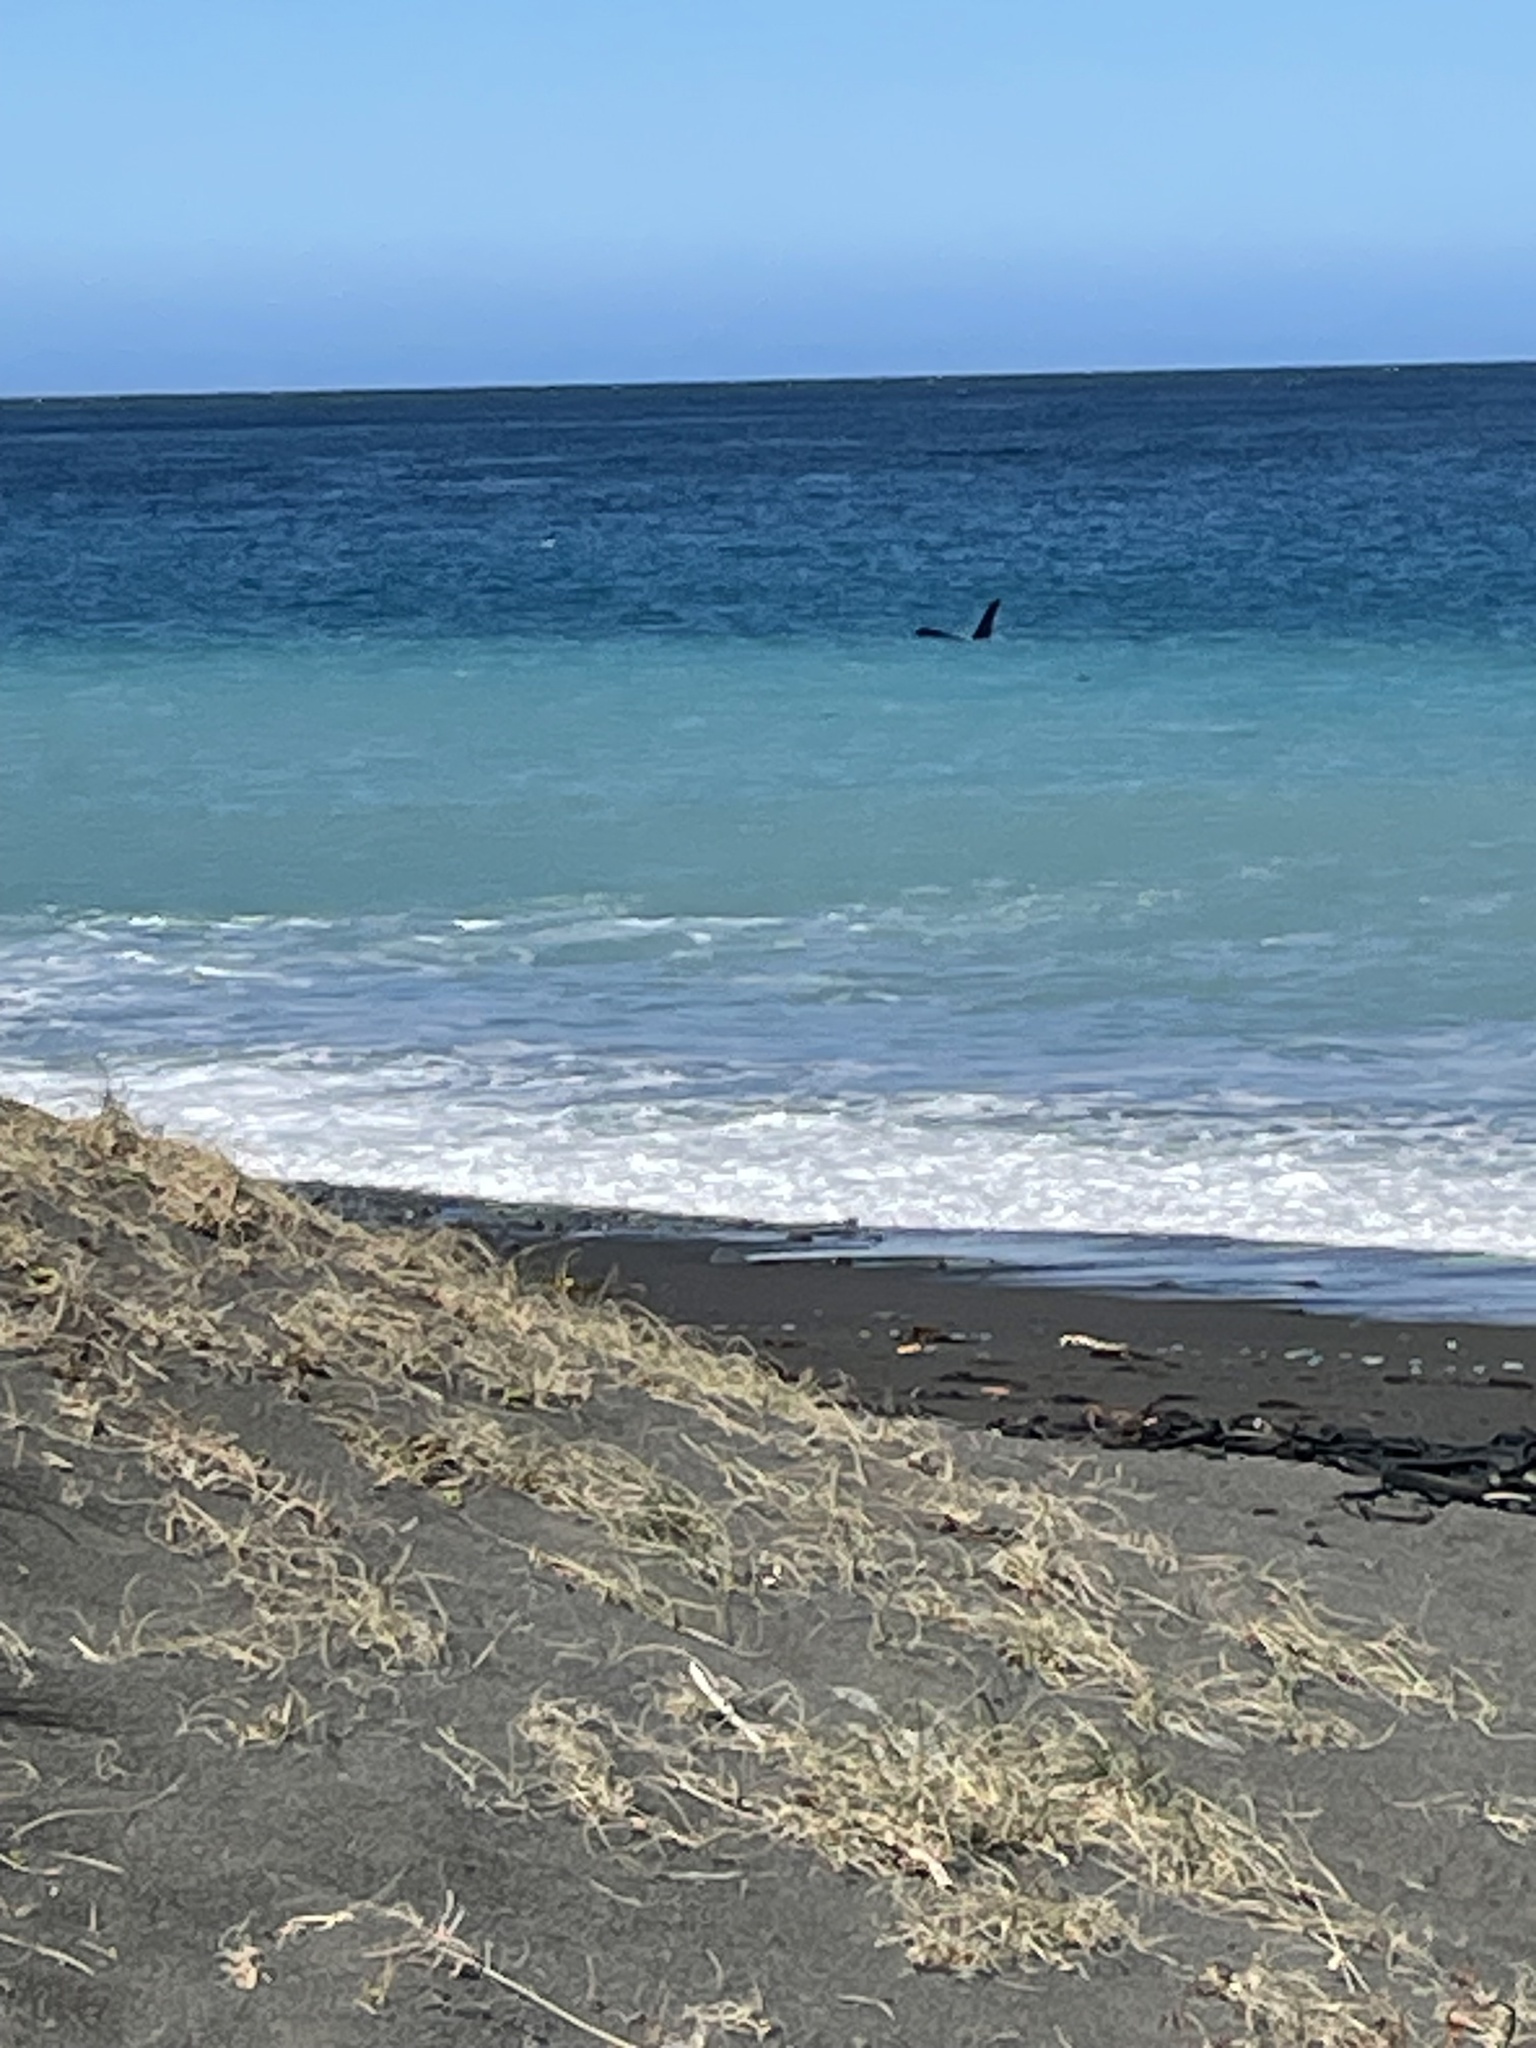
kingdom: Animalia
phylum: Chordata
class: Mammalia
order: Cetacea
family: Delphinidae
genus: Orcinus
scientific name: Orcinus orca
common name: Killer whale
